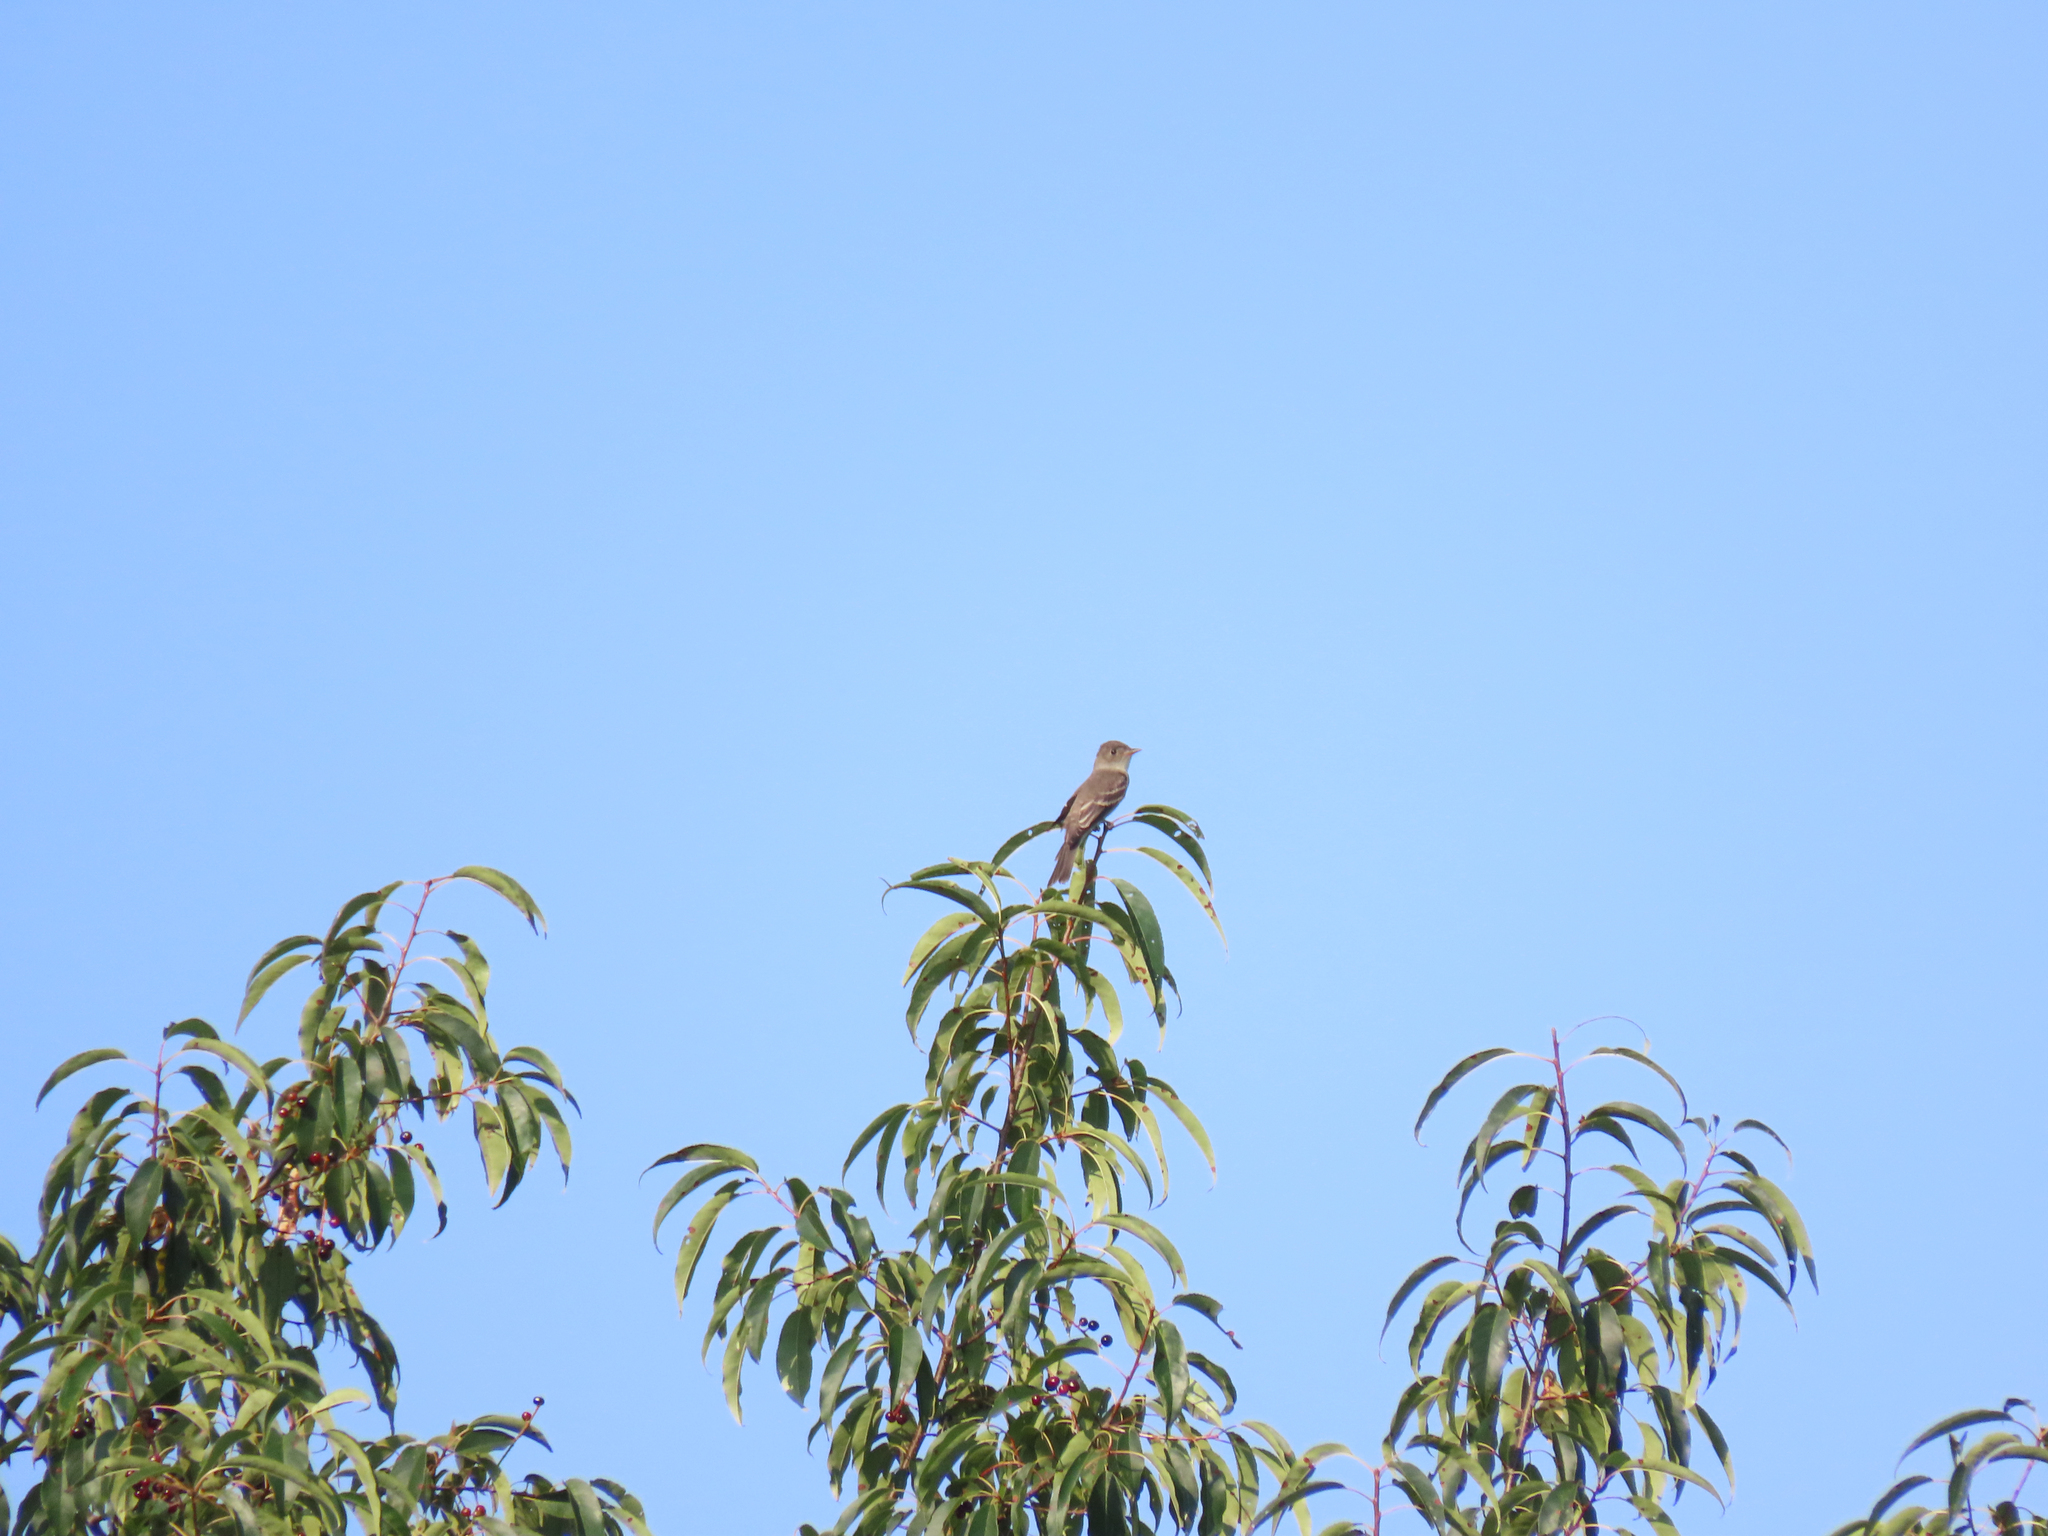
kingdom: Animalia
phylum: Chordata
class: Aves
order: Passeriformes
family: Tyrannidae
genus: Contopus
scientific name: Contopus virens
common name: Eastern wood-pewee
